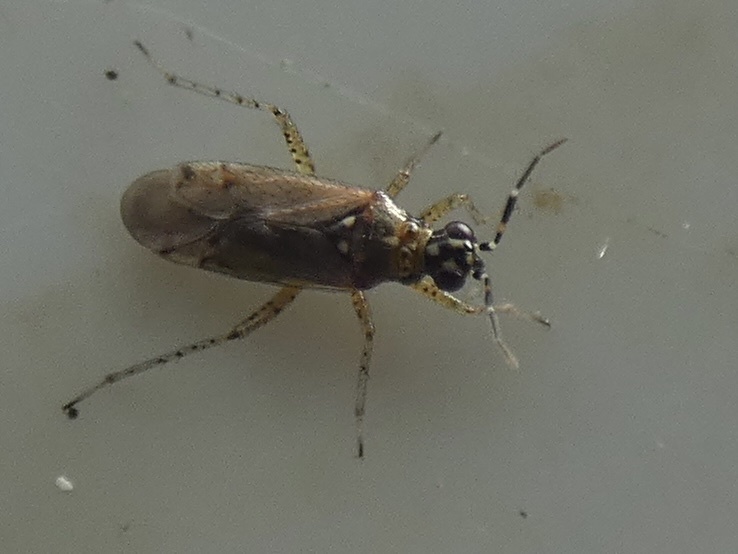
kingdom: Animalia
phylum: Arthropoda
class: Insecta
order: Hemiptera
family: Miridae
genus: Dicyphus
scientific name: Dicyphus annulatus
